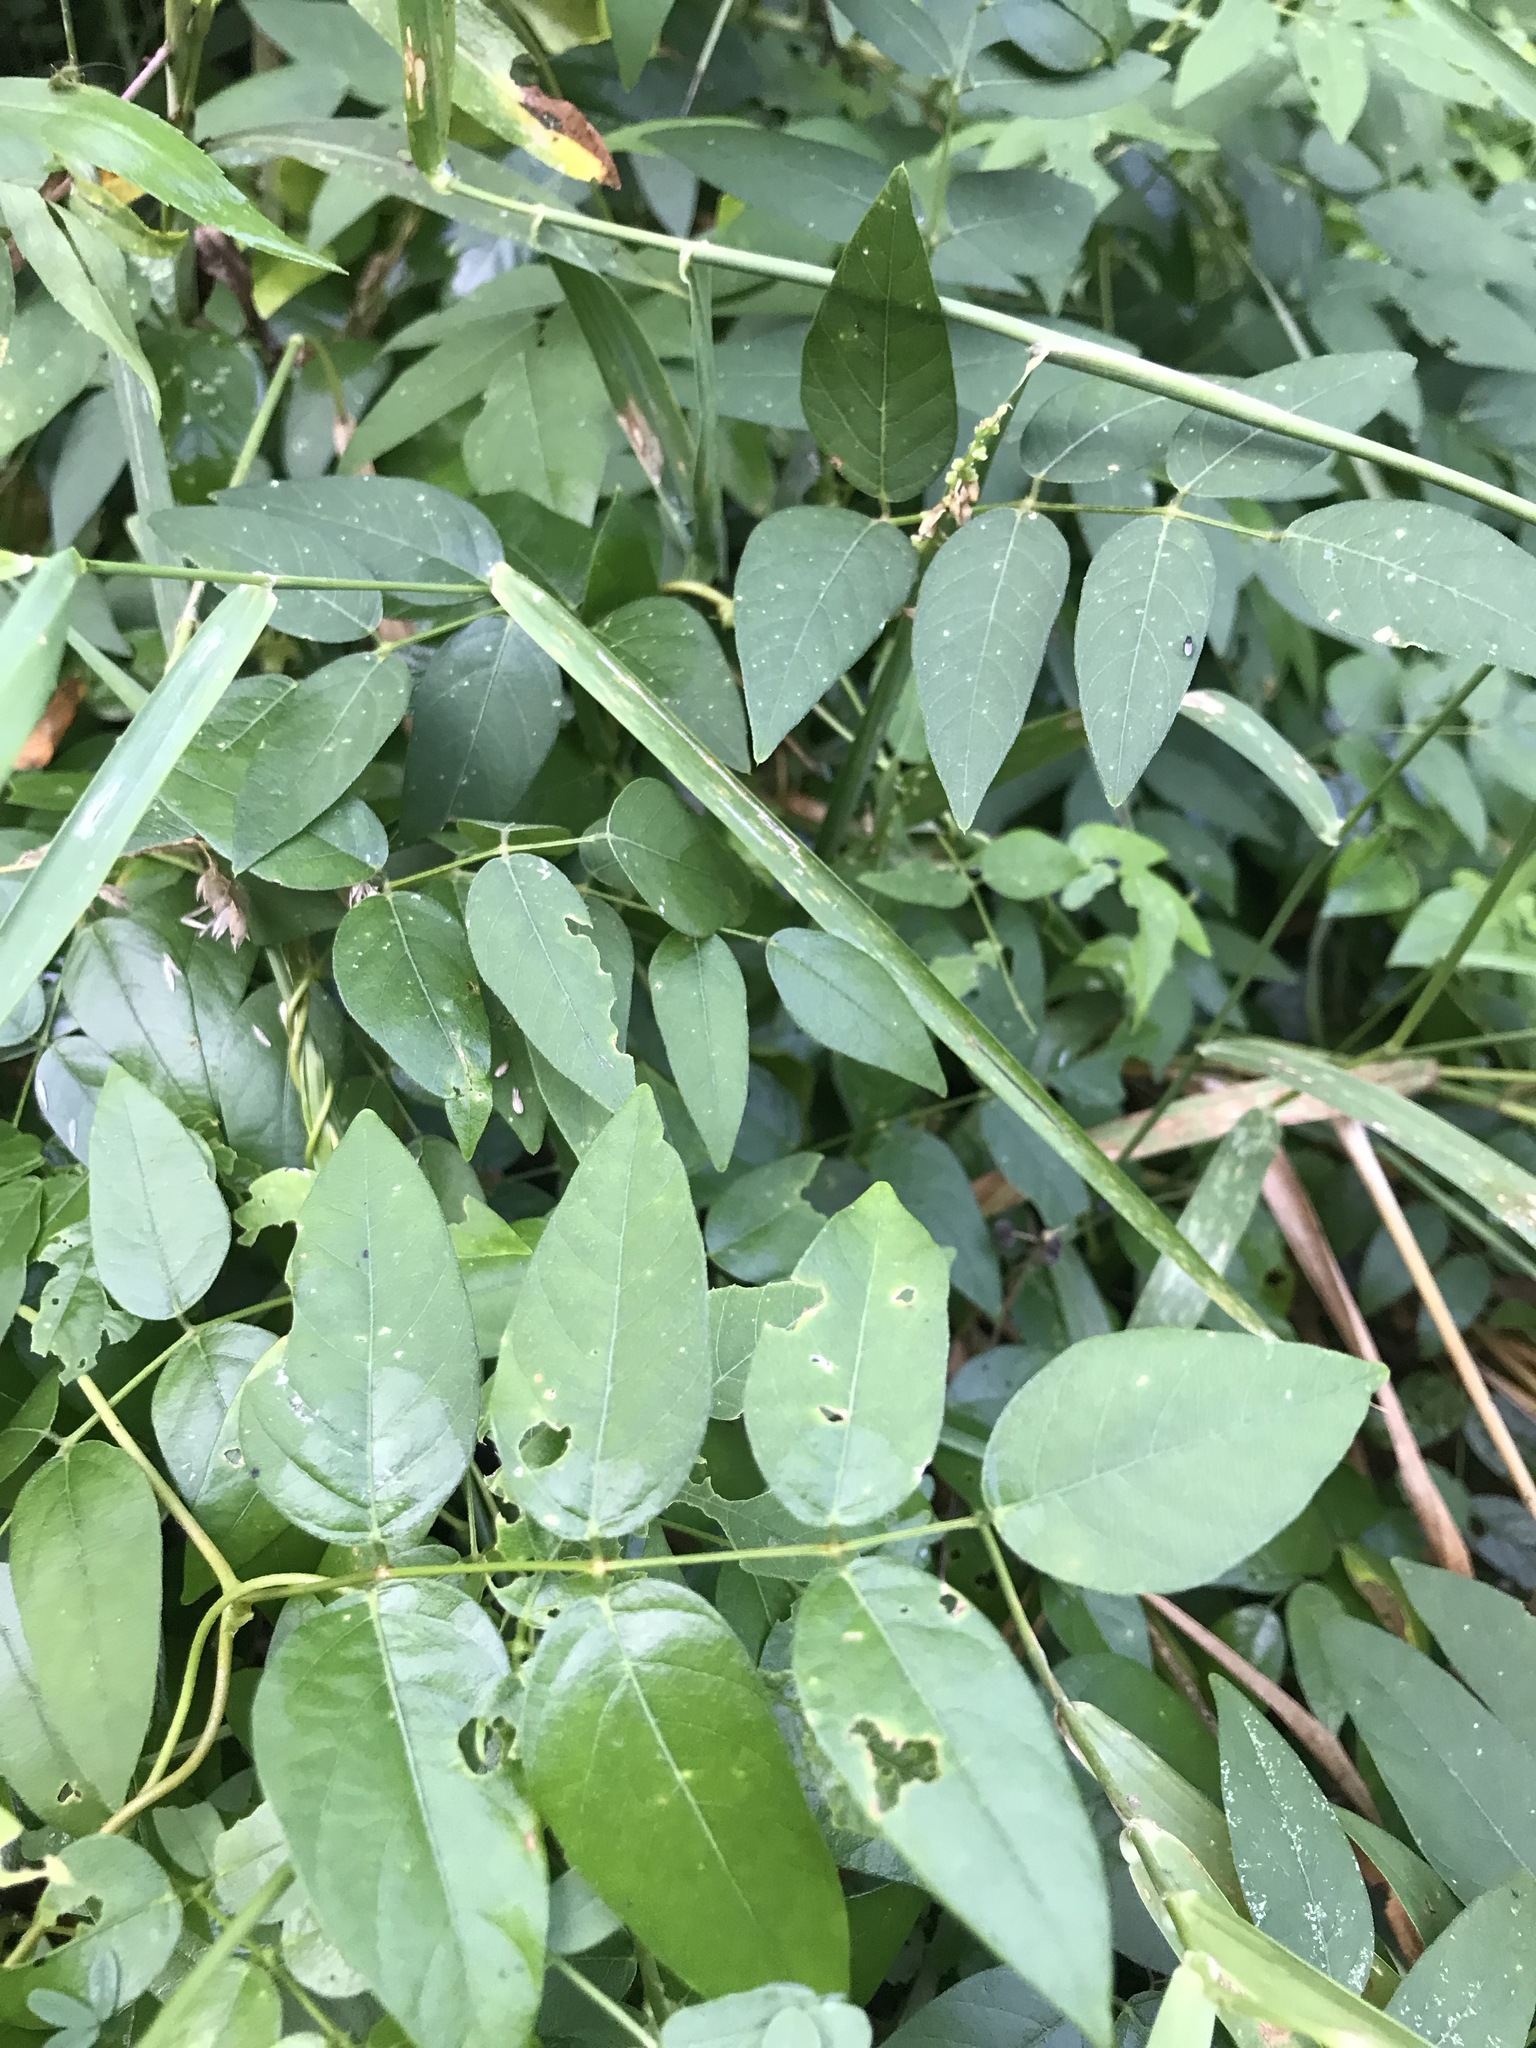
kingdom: Plantae
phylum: Tracheophyta
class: Magnoliopsida
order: Fabales
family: Fabaceae
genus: Apios
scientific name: Apios americana
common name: American potato-bean
